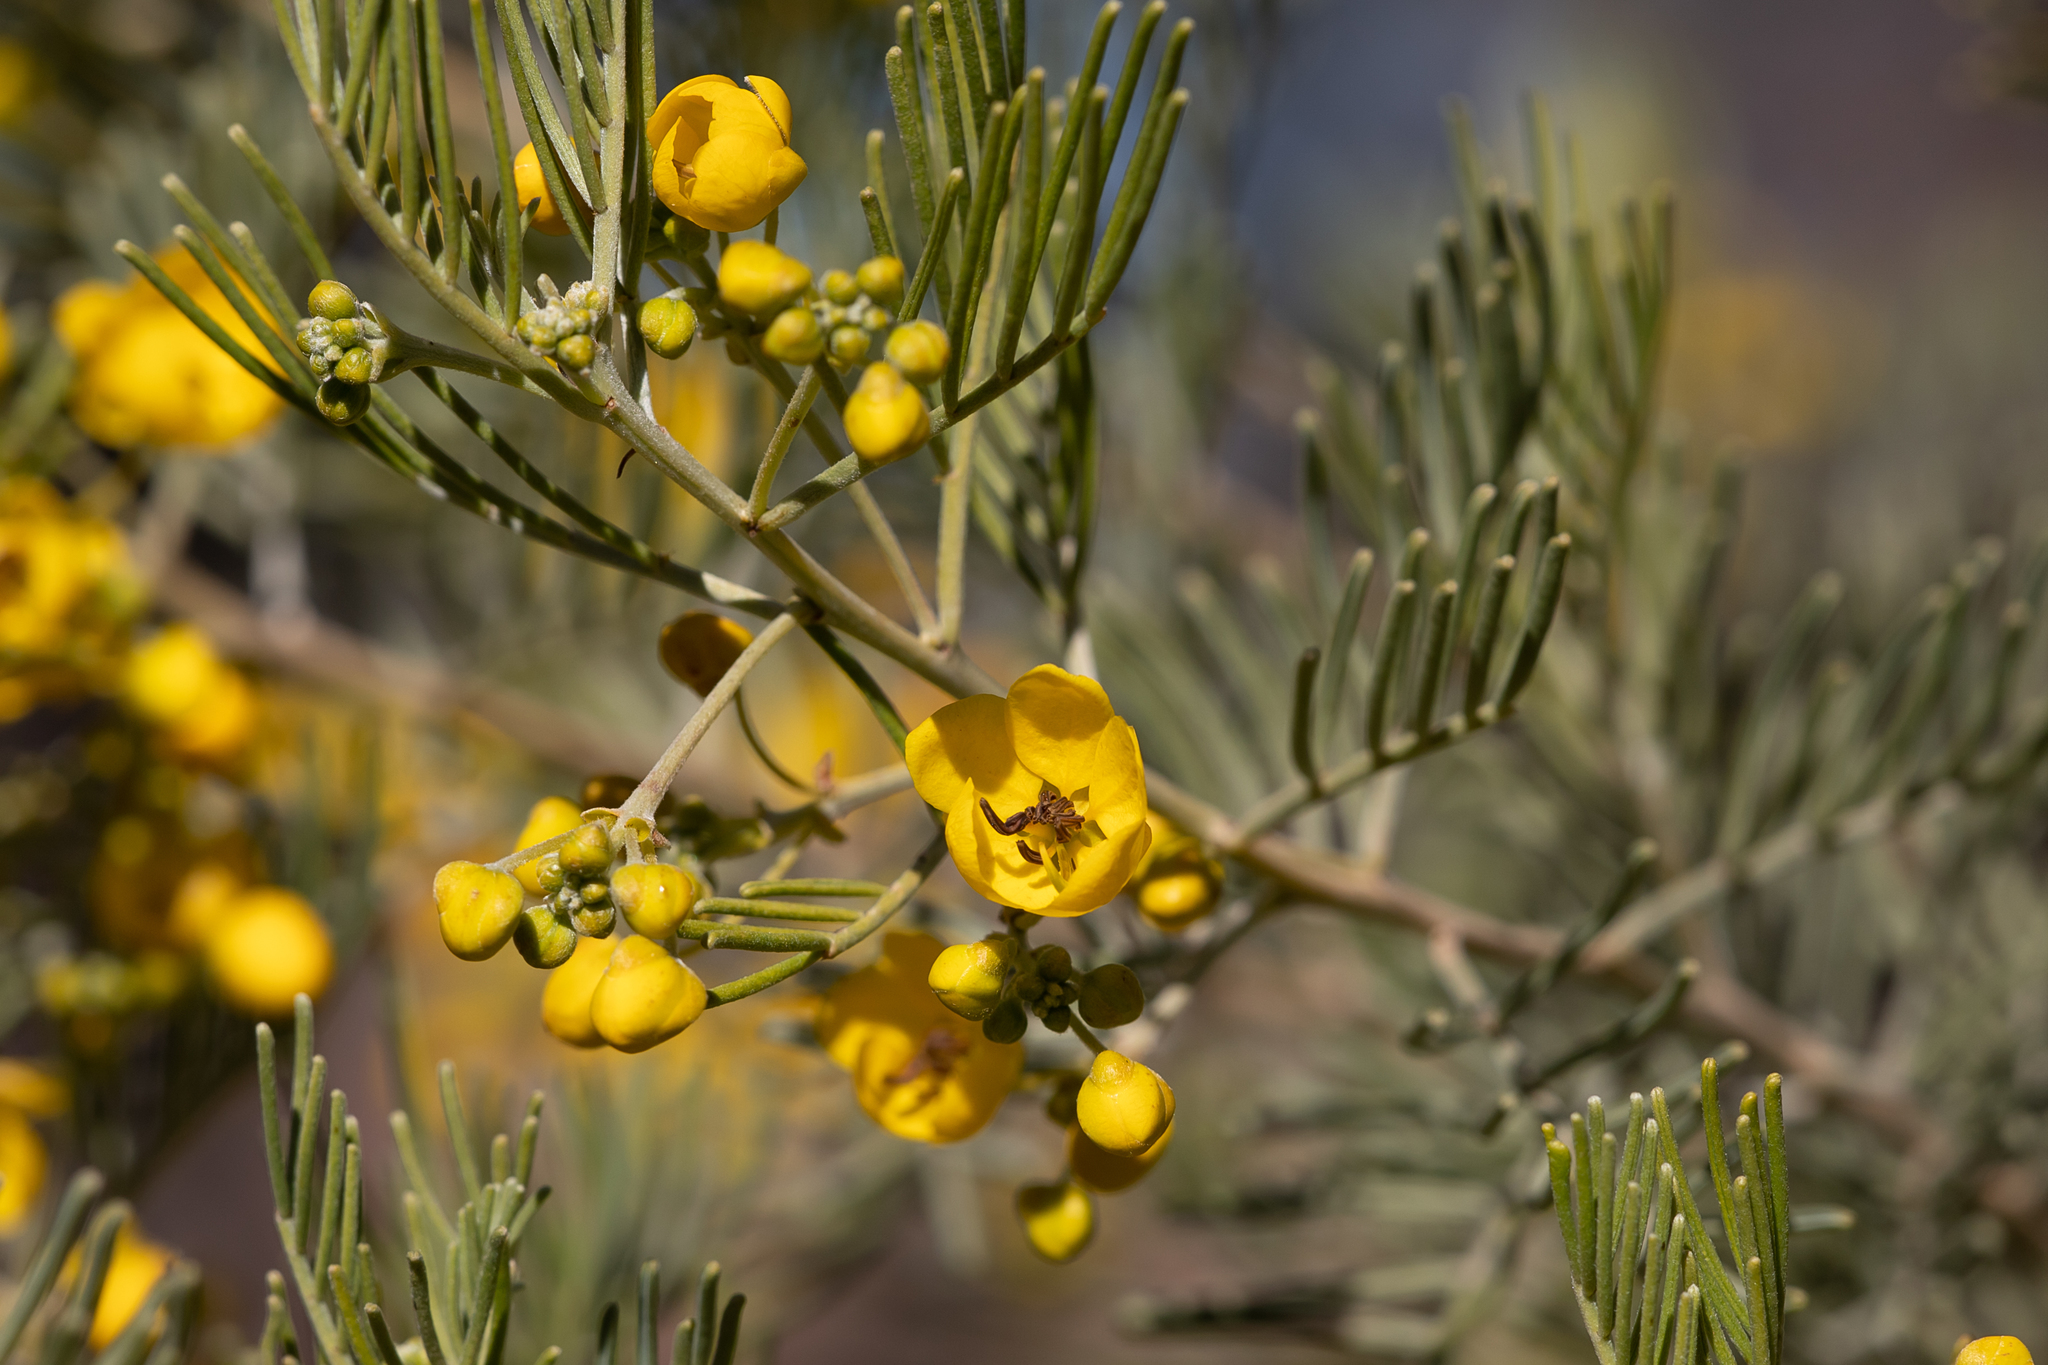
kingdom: Plantae
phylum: Tracheophyta
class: Magnoliopsida
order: Fabales
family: Fabaceae
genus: Senna
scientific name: Senna artemisioides
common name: Burnt-leaved acacia
